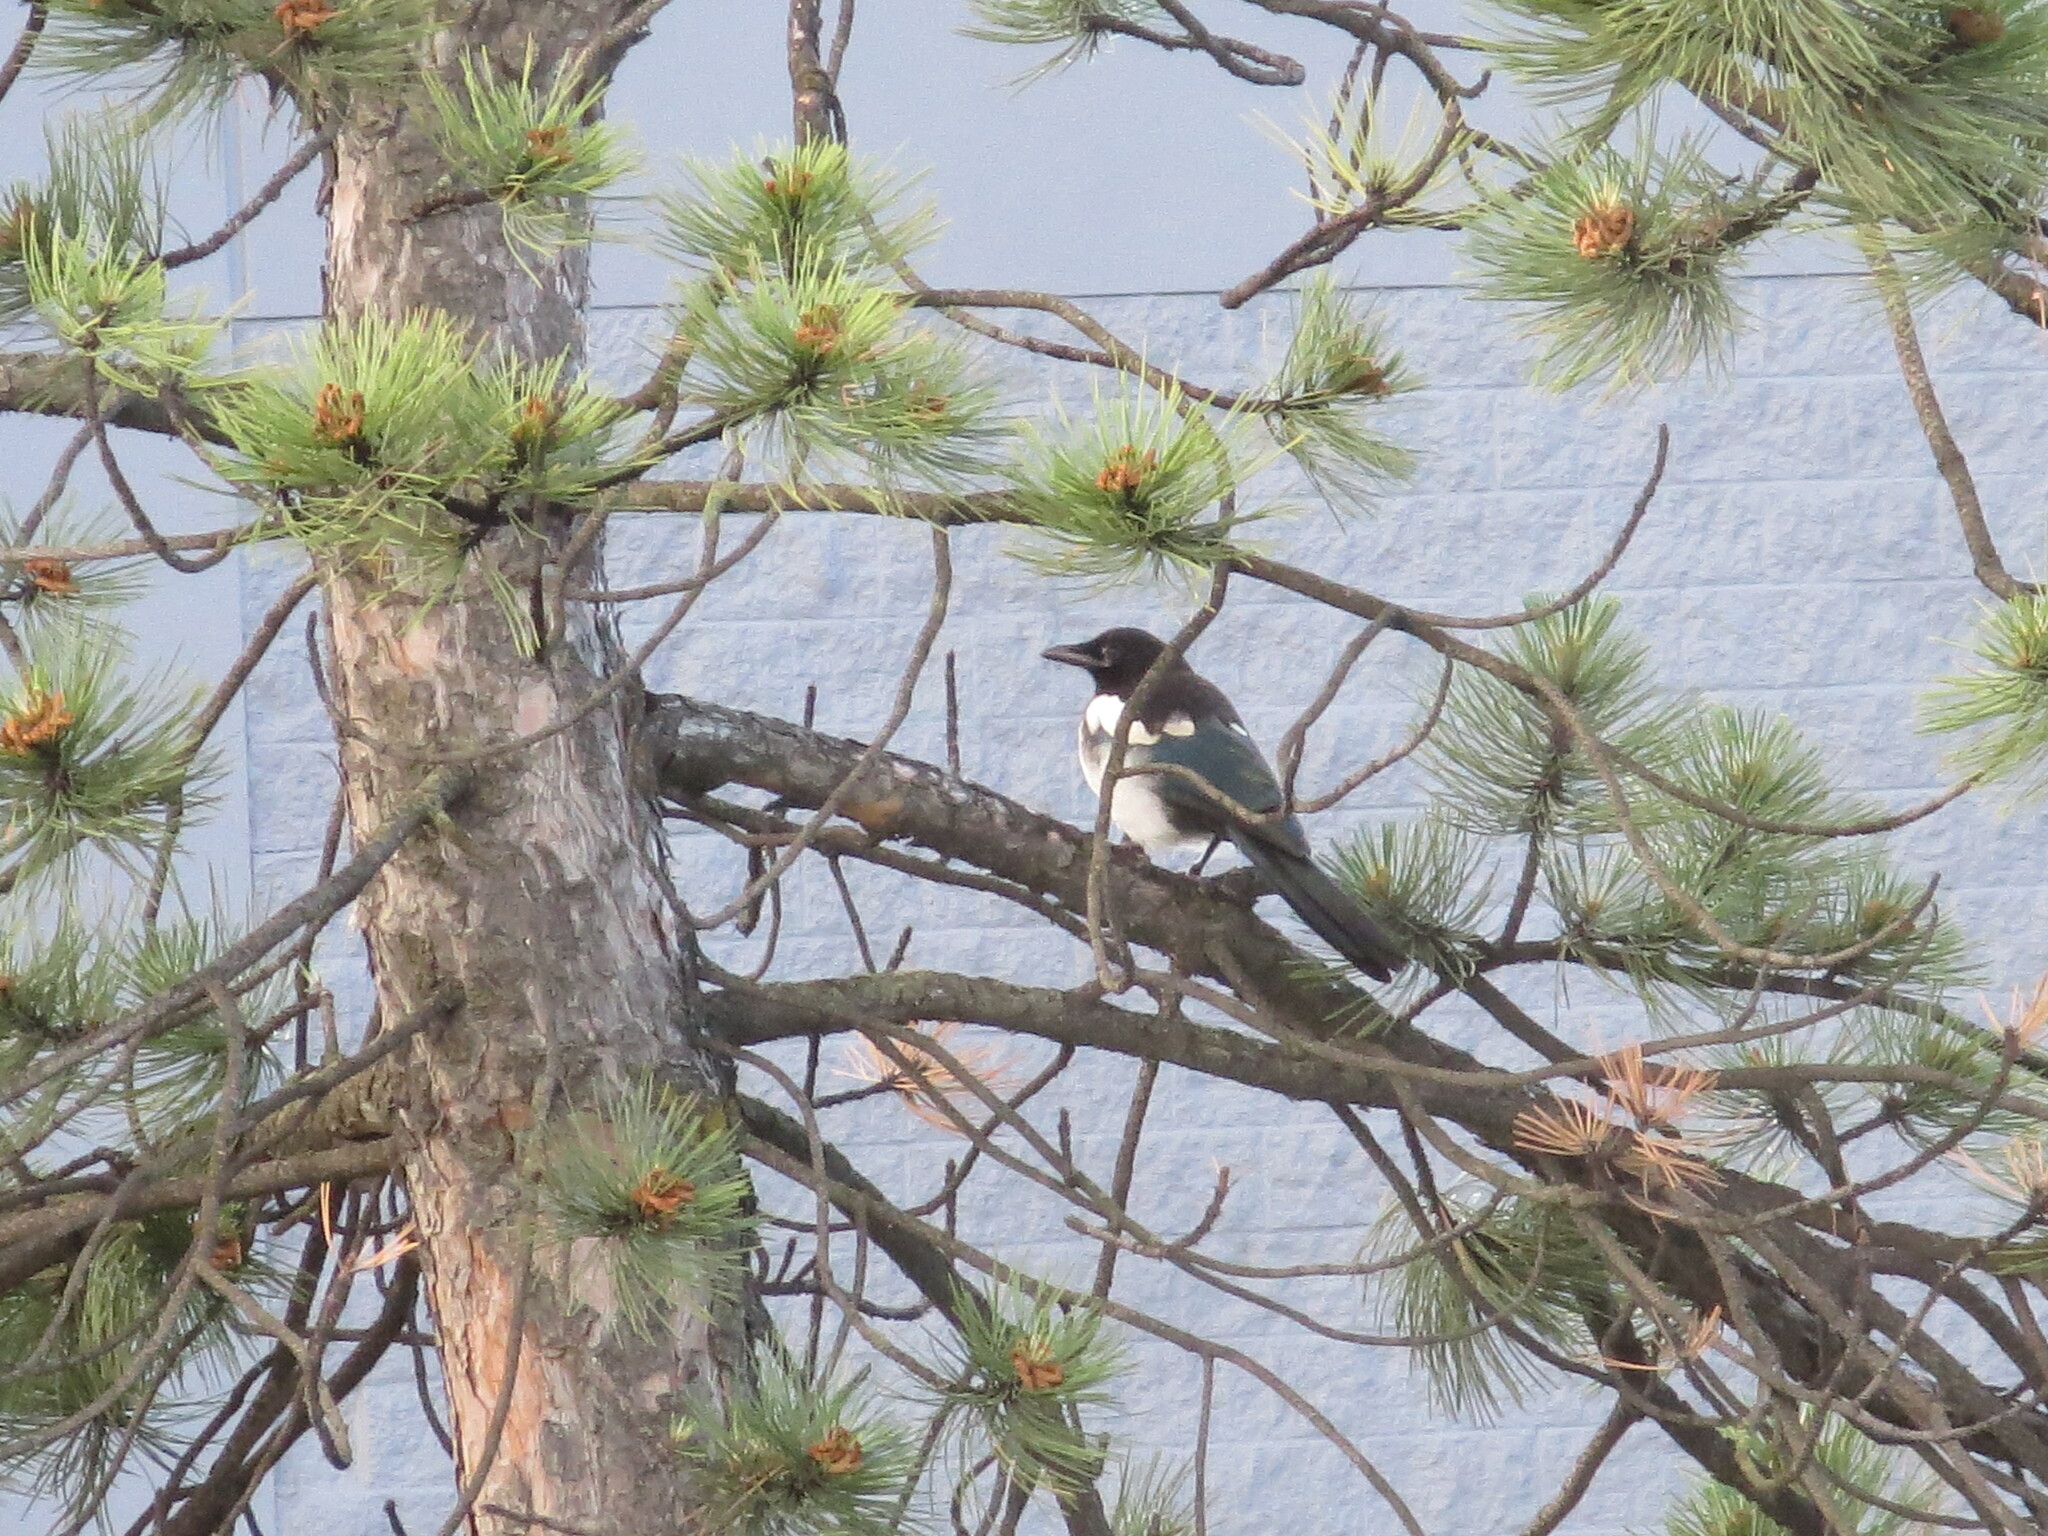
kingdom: Animalia
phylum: Chordata
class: Aves
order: Passeriformes
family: Corvidae
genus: Pica
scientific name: Pica hudsonia
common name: Black-billed magpie
